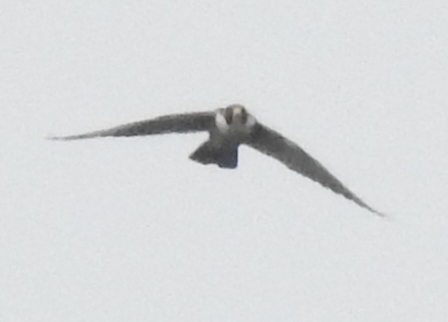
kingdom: Animalia
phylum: Chordata
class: Aves
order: Falconiformes
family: Falconidae
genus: Falco
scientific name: Falco peregrinus
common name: Peregrine falcon
